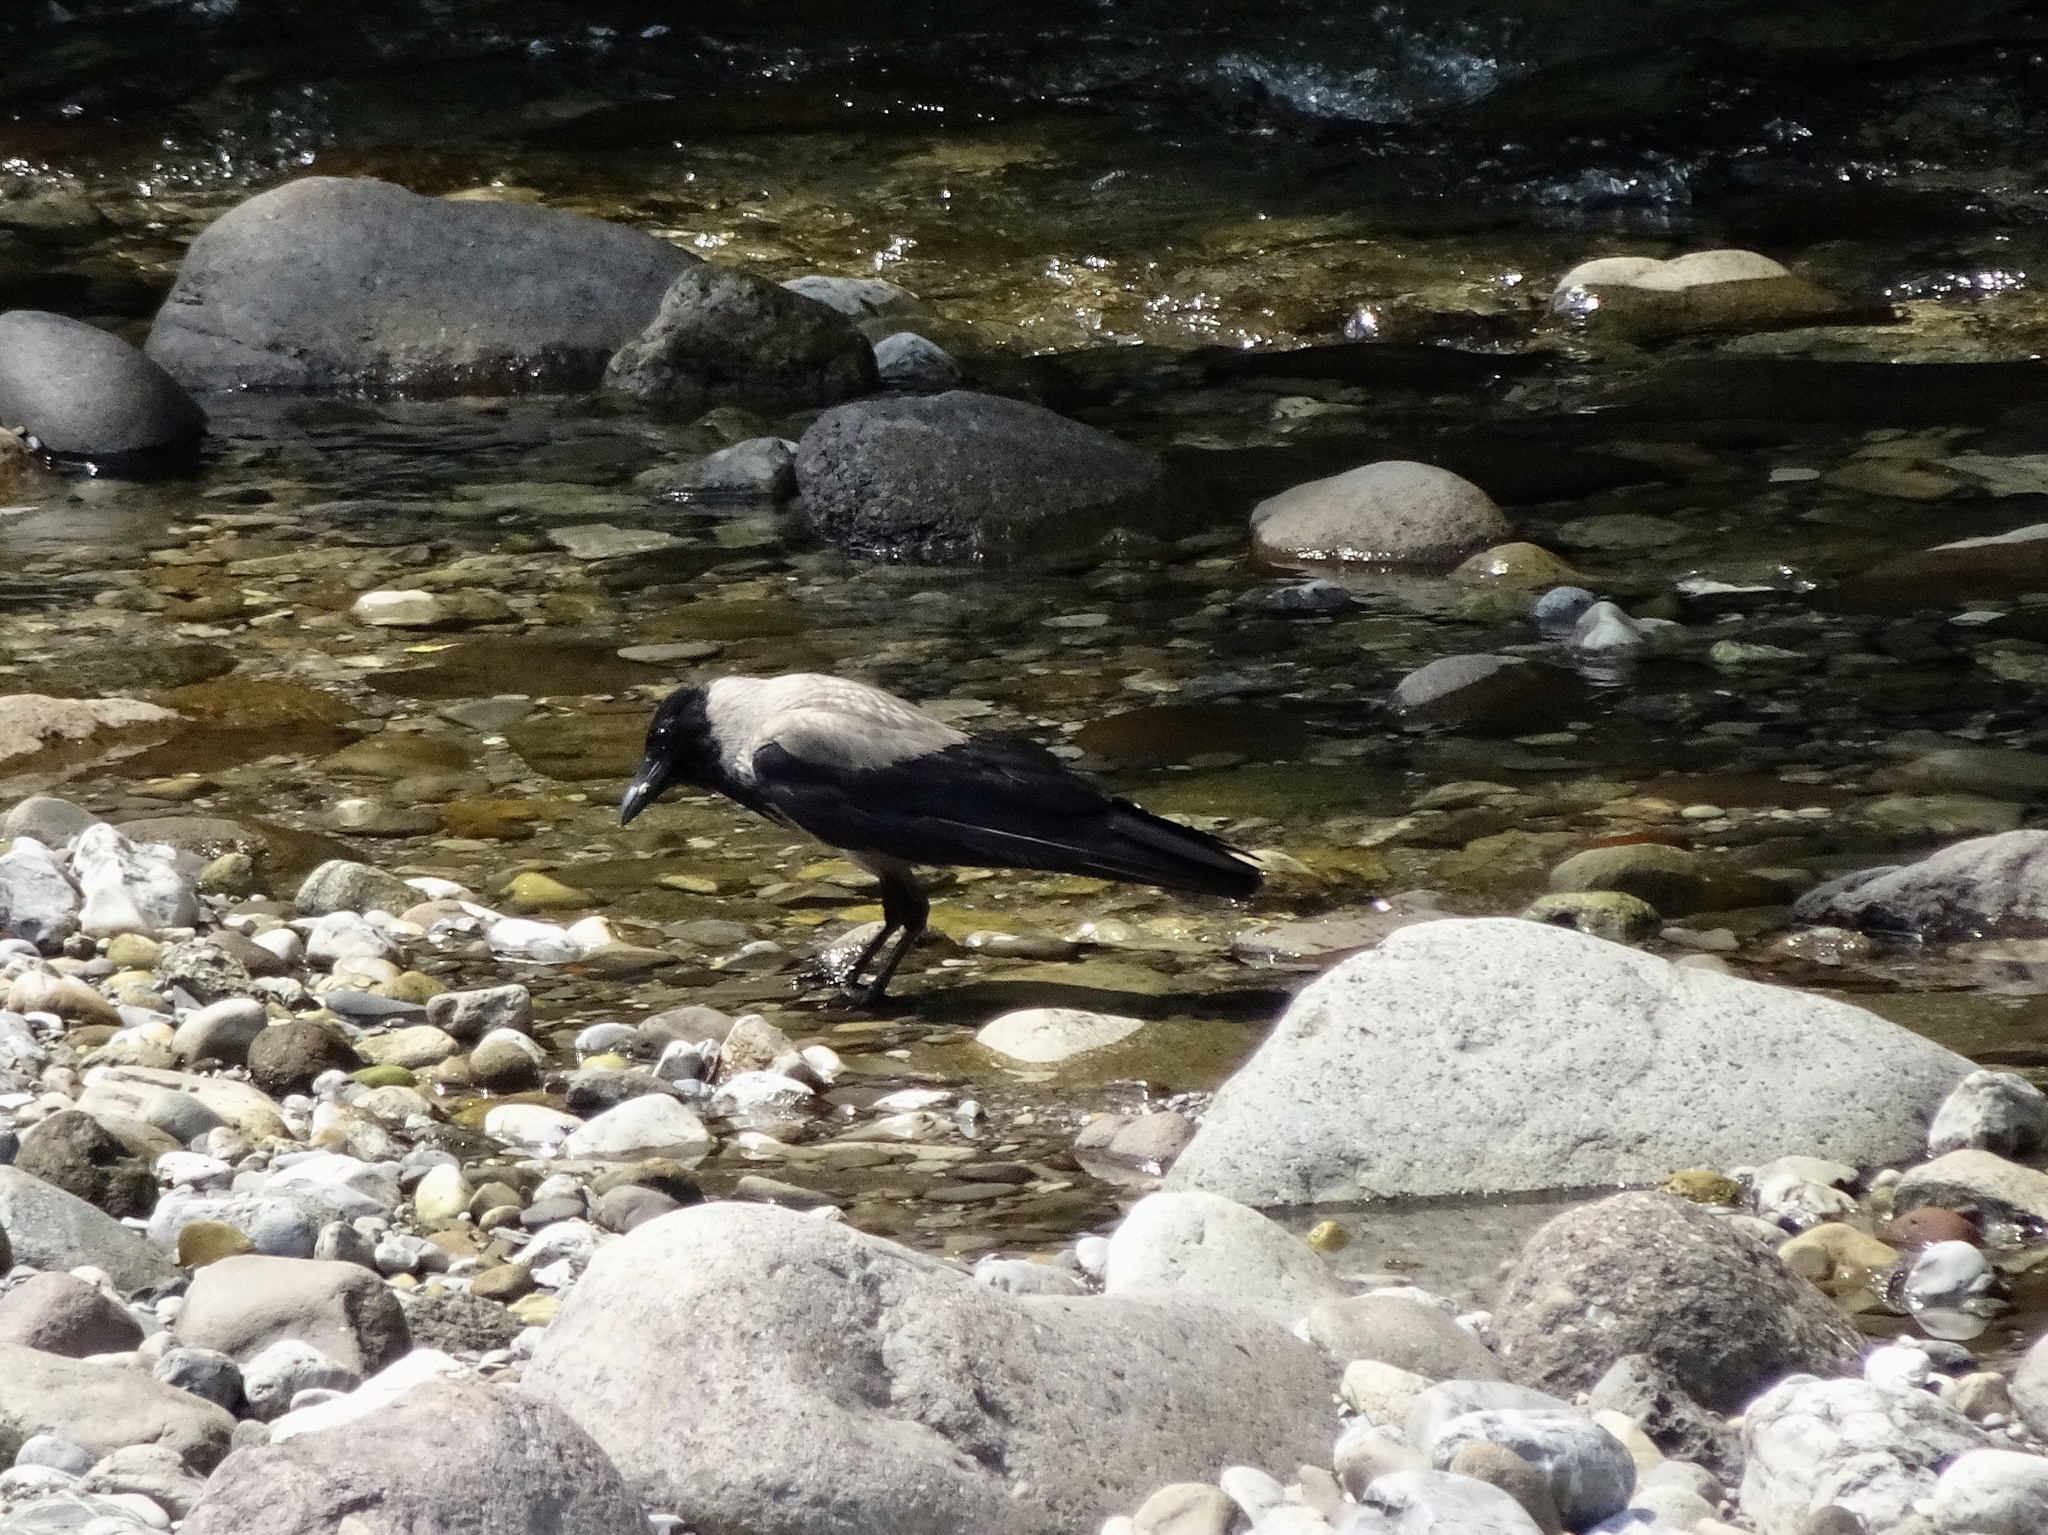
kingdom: Animalia
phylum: Chordata
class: Aves
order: Passeriformes
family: Corvidae
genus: Corvus
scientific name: Corvus cornix
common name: Hooded crow
